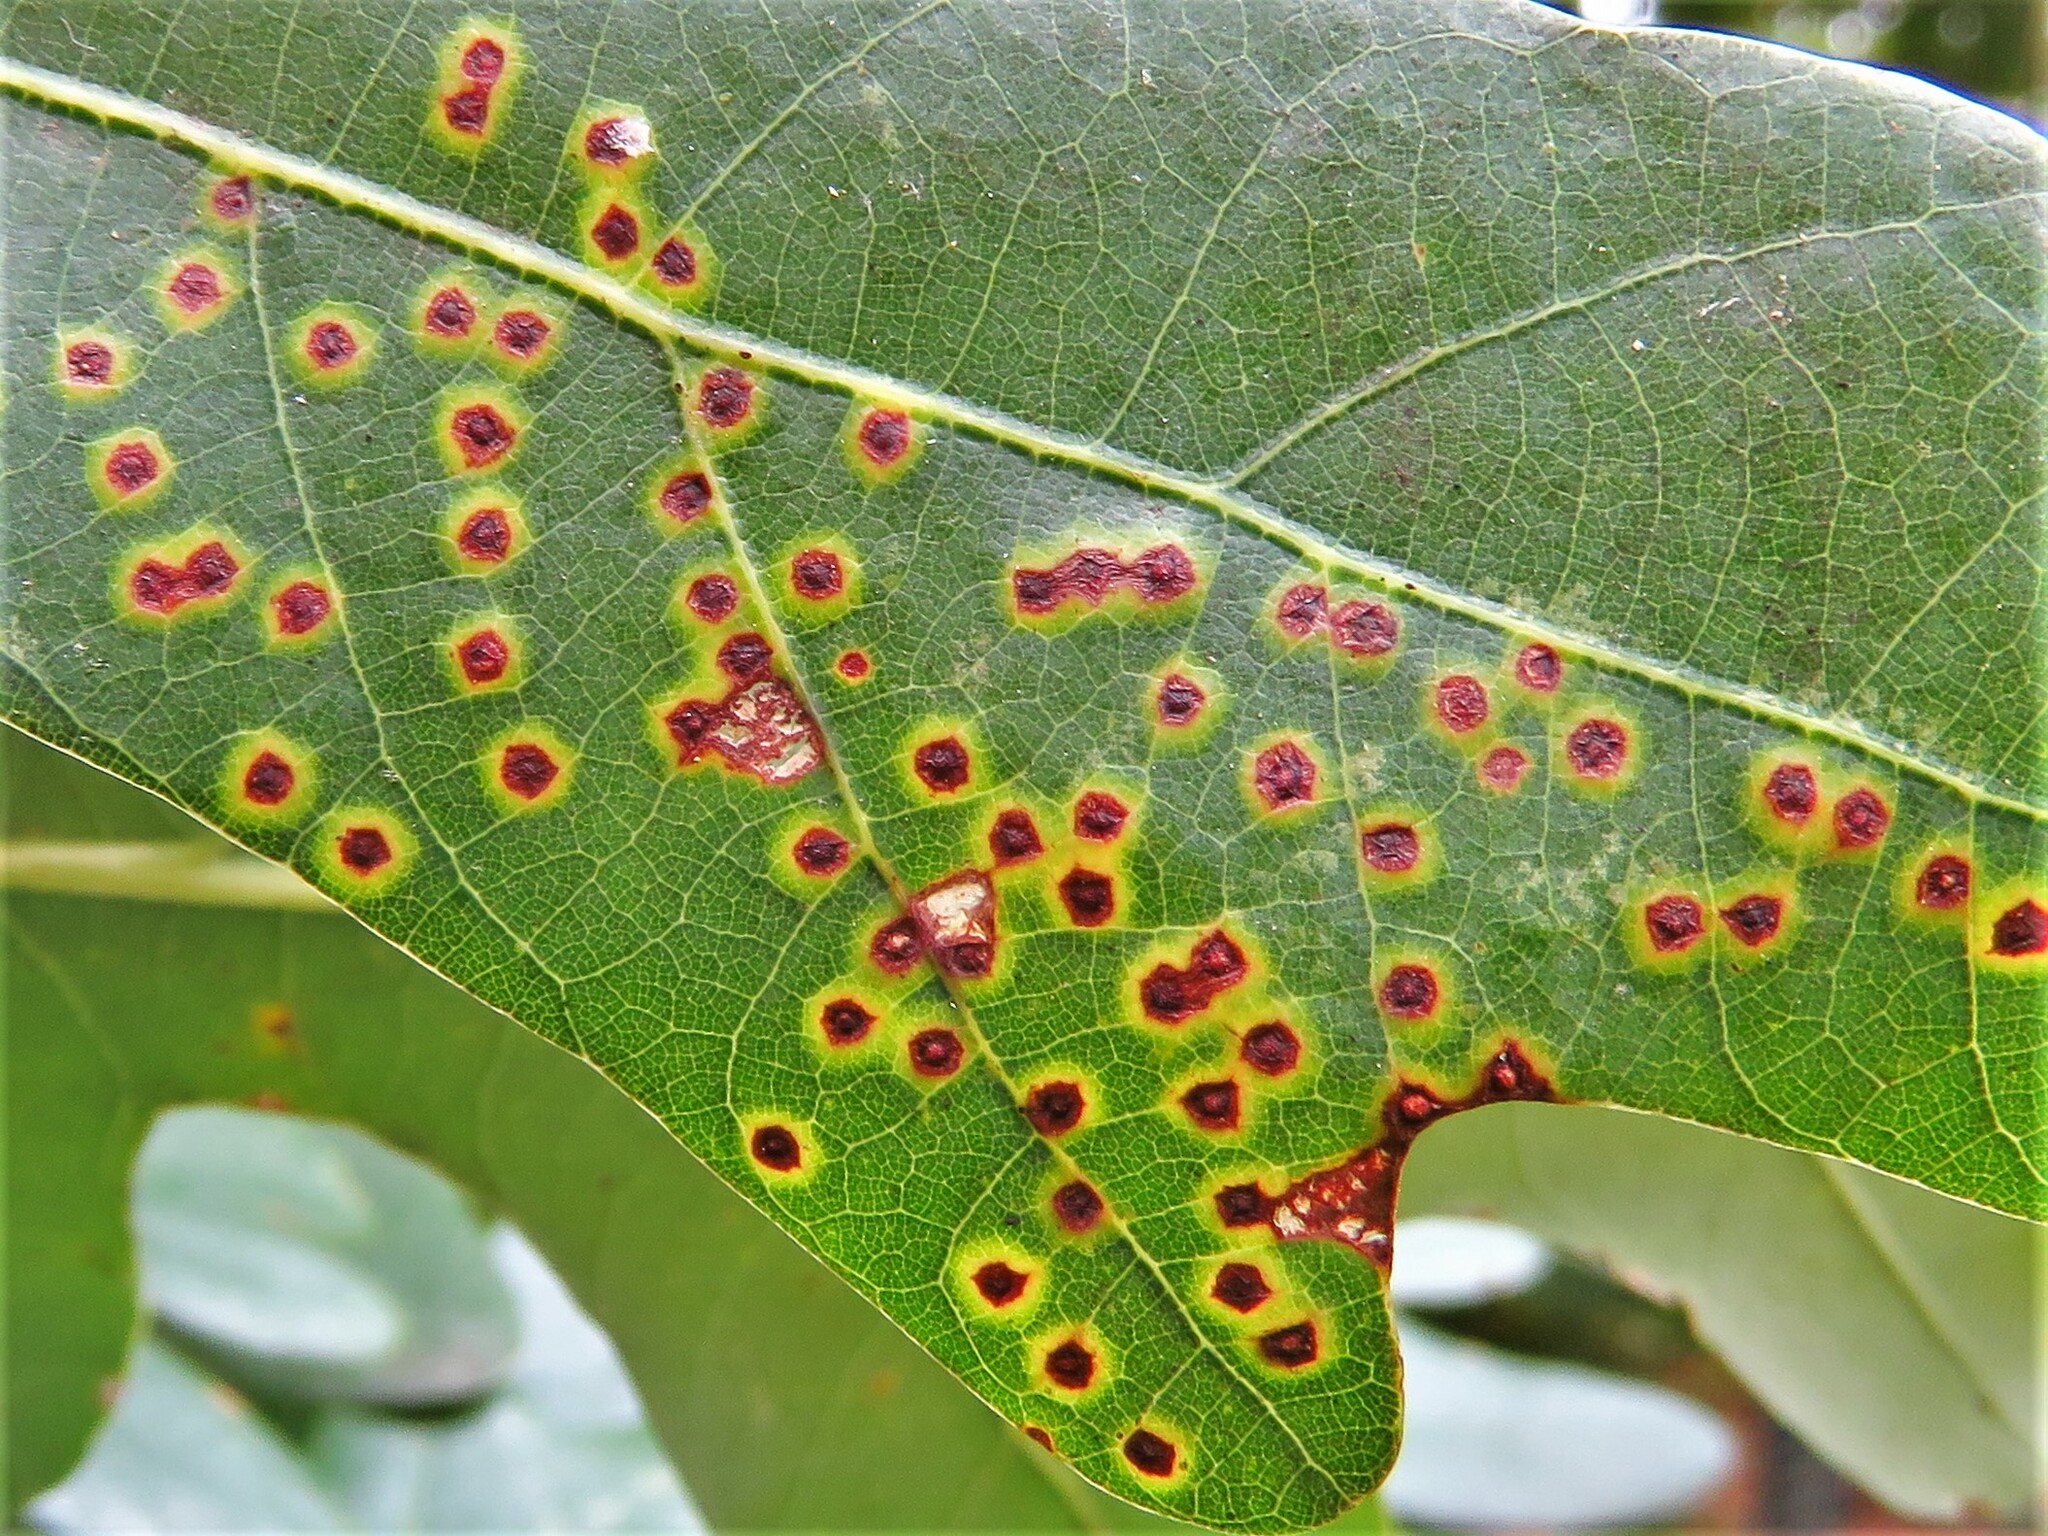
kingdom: Animalia
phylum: Arthropoda
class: Insecta
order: Hymenoptera
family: Cynipidae
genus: Neuroterus
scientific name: Neuroterus
